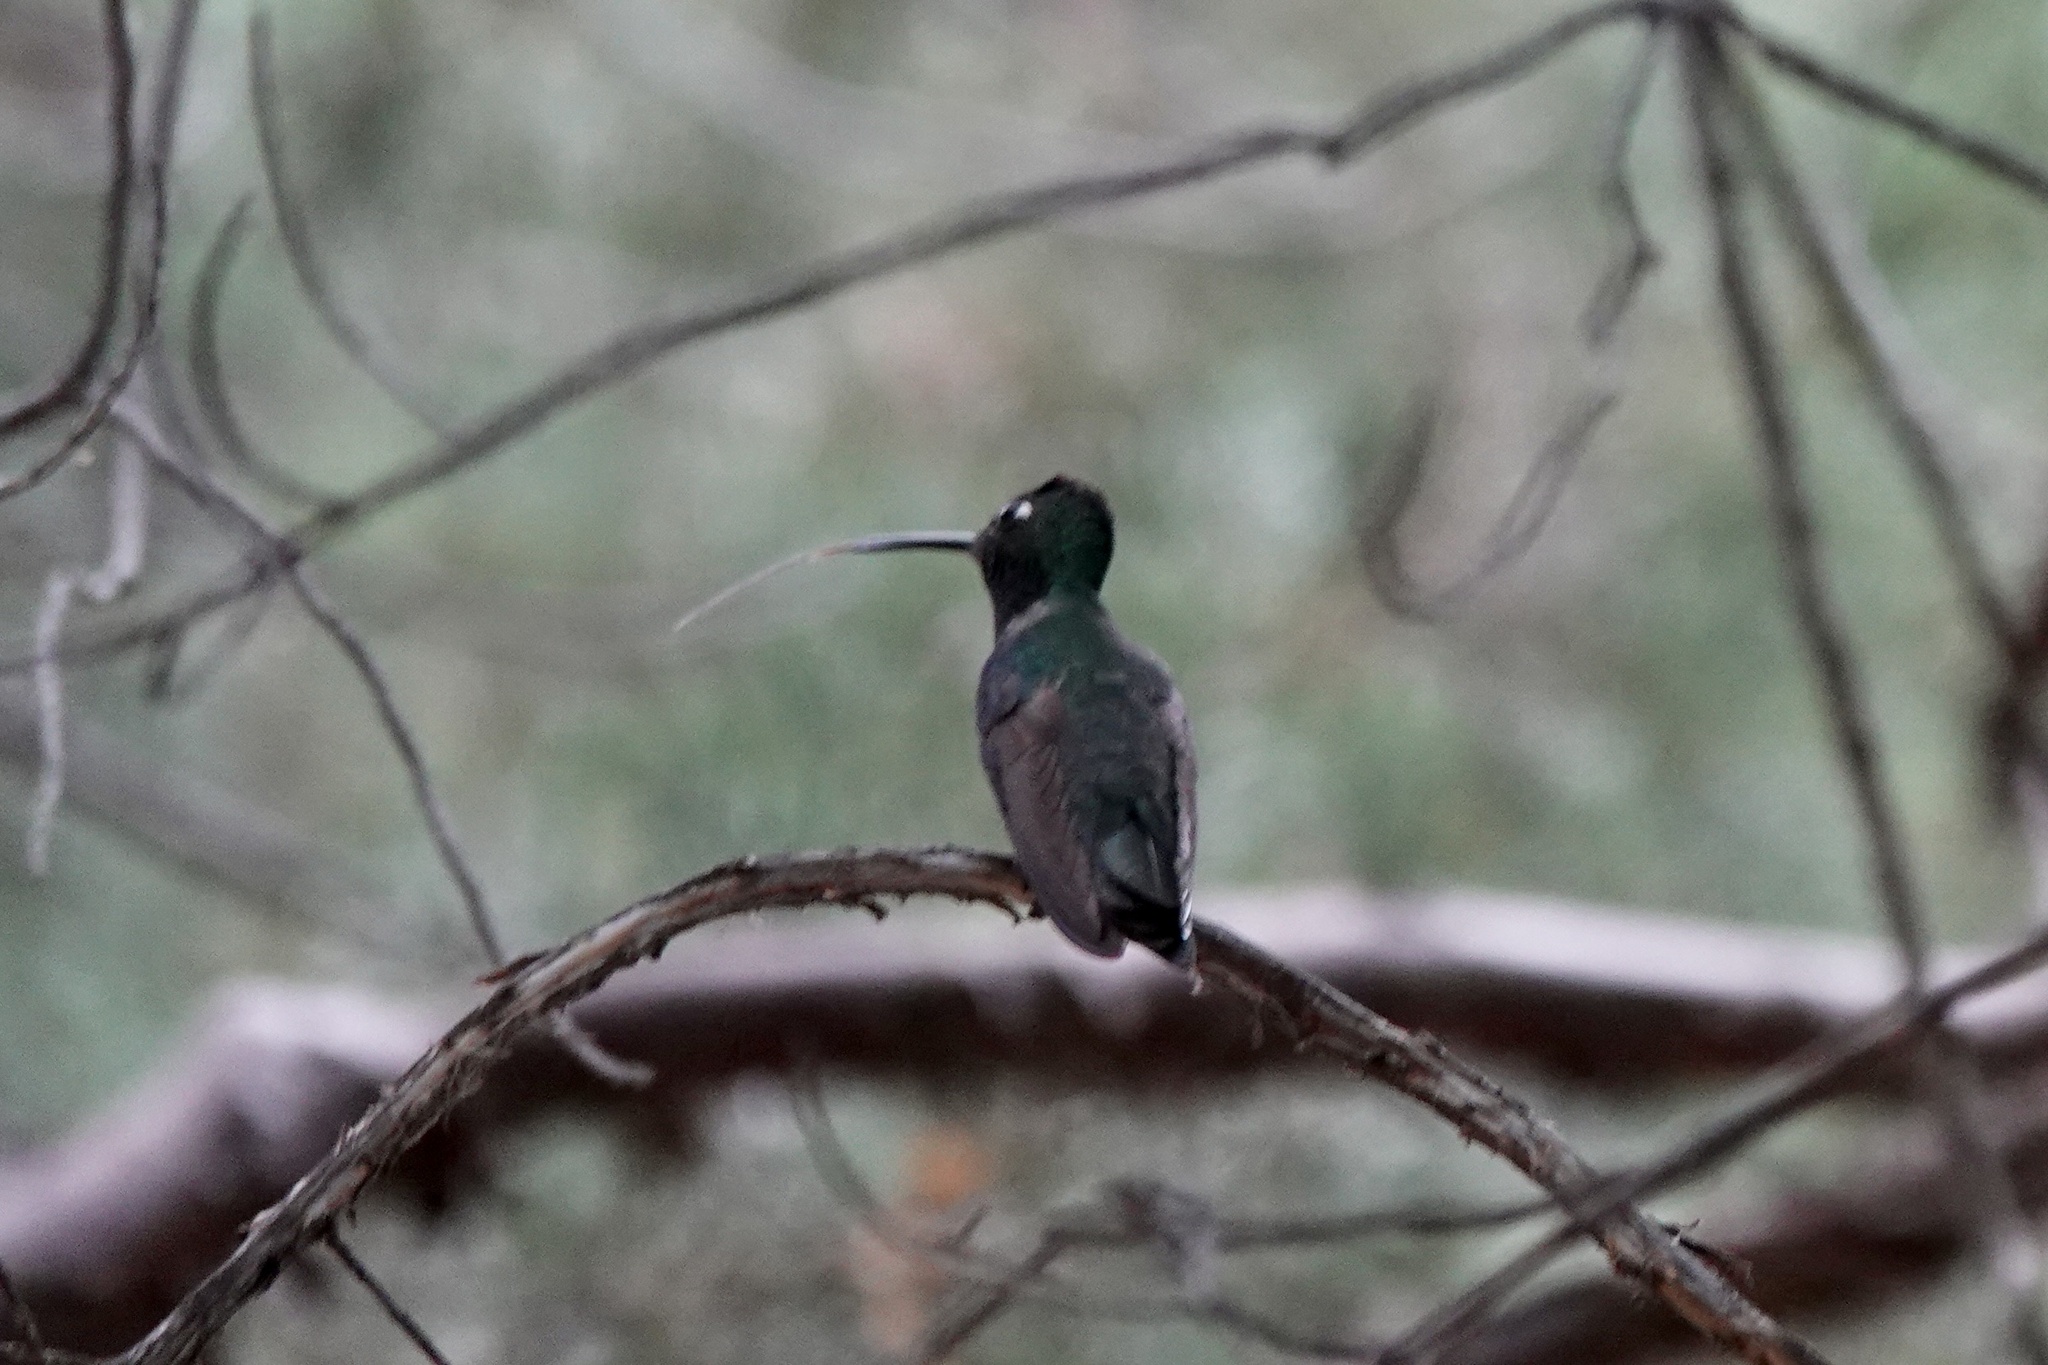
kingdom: Animalia
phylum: Chordata
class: Aves
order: Apodiformes
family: Trochilidae
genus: Eugenes
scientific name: Eugenes fulgens
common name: Magnificent hummingbird
